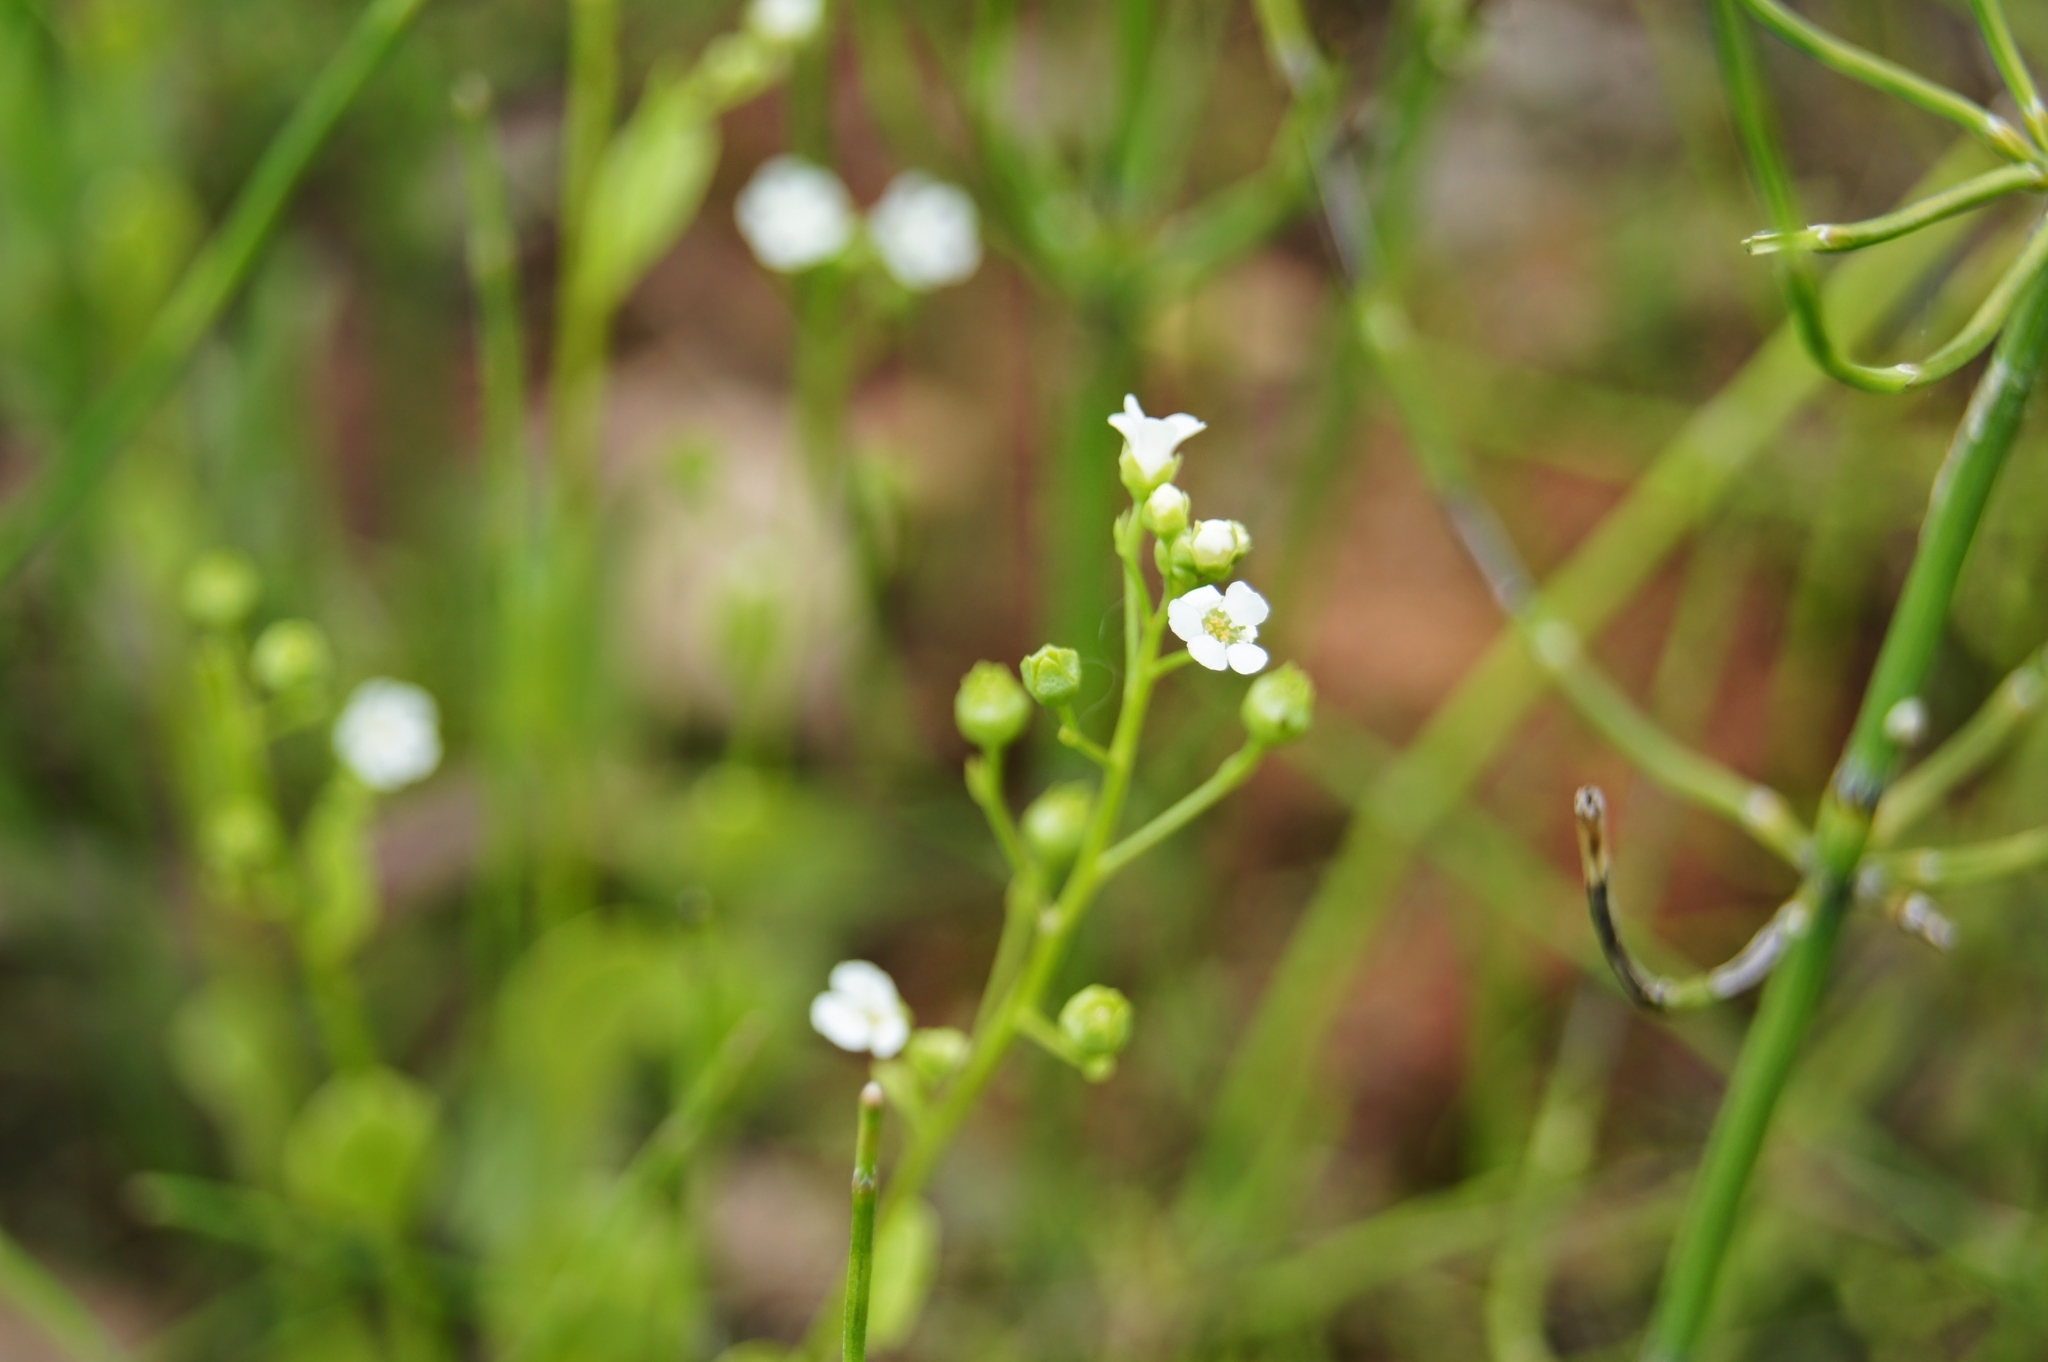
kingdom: Plantae
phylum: Tracheophyta
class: Magnoliopsida
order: Ericales
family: Primulaceae
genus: Samolus
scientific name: Samolus valerandi
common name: Brookweed
